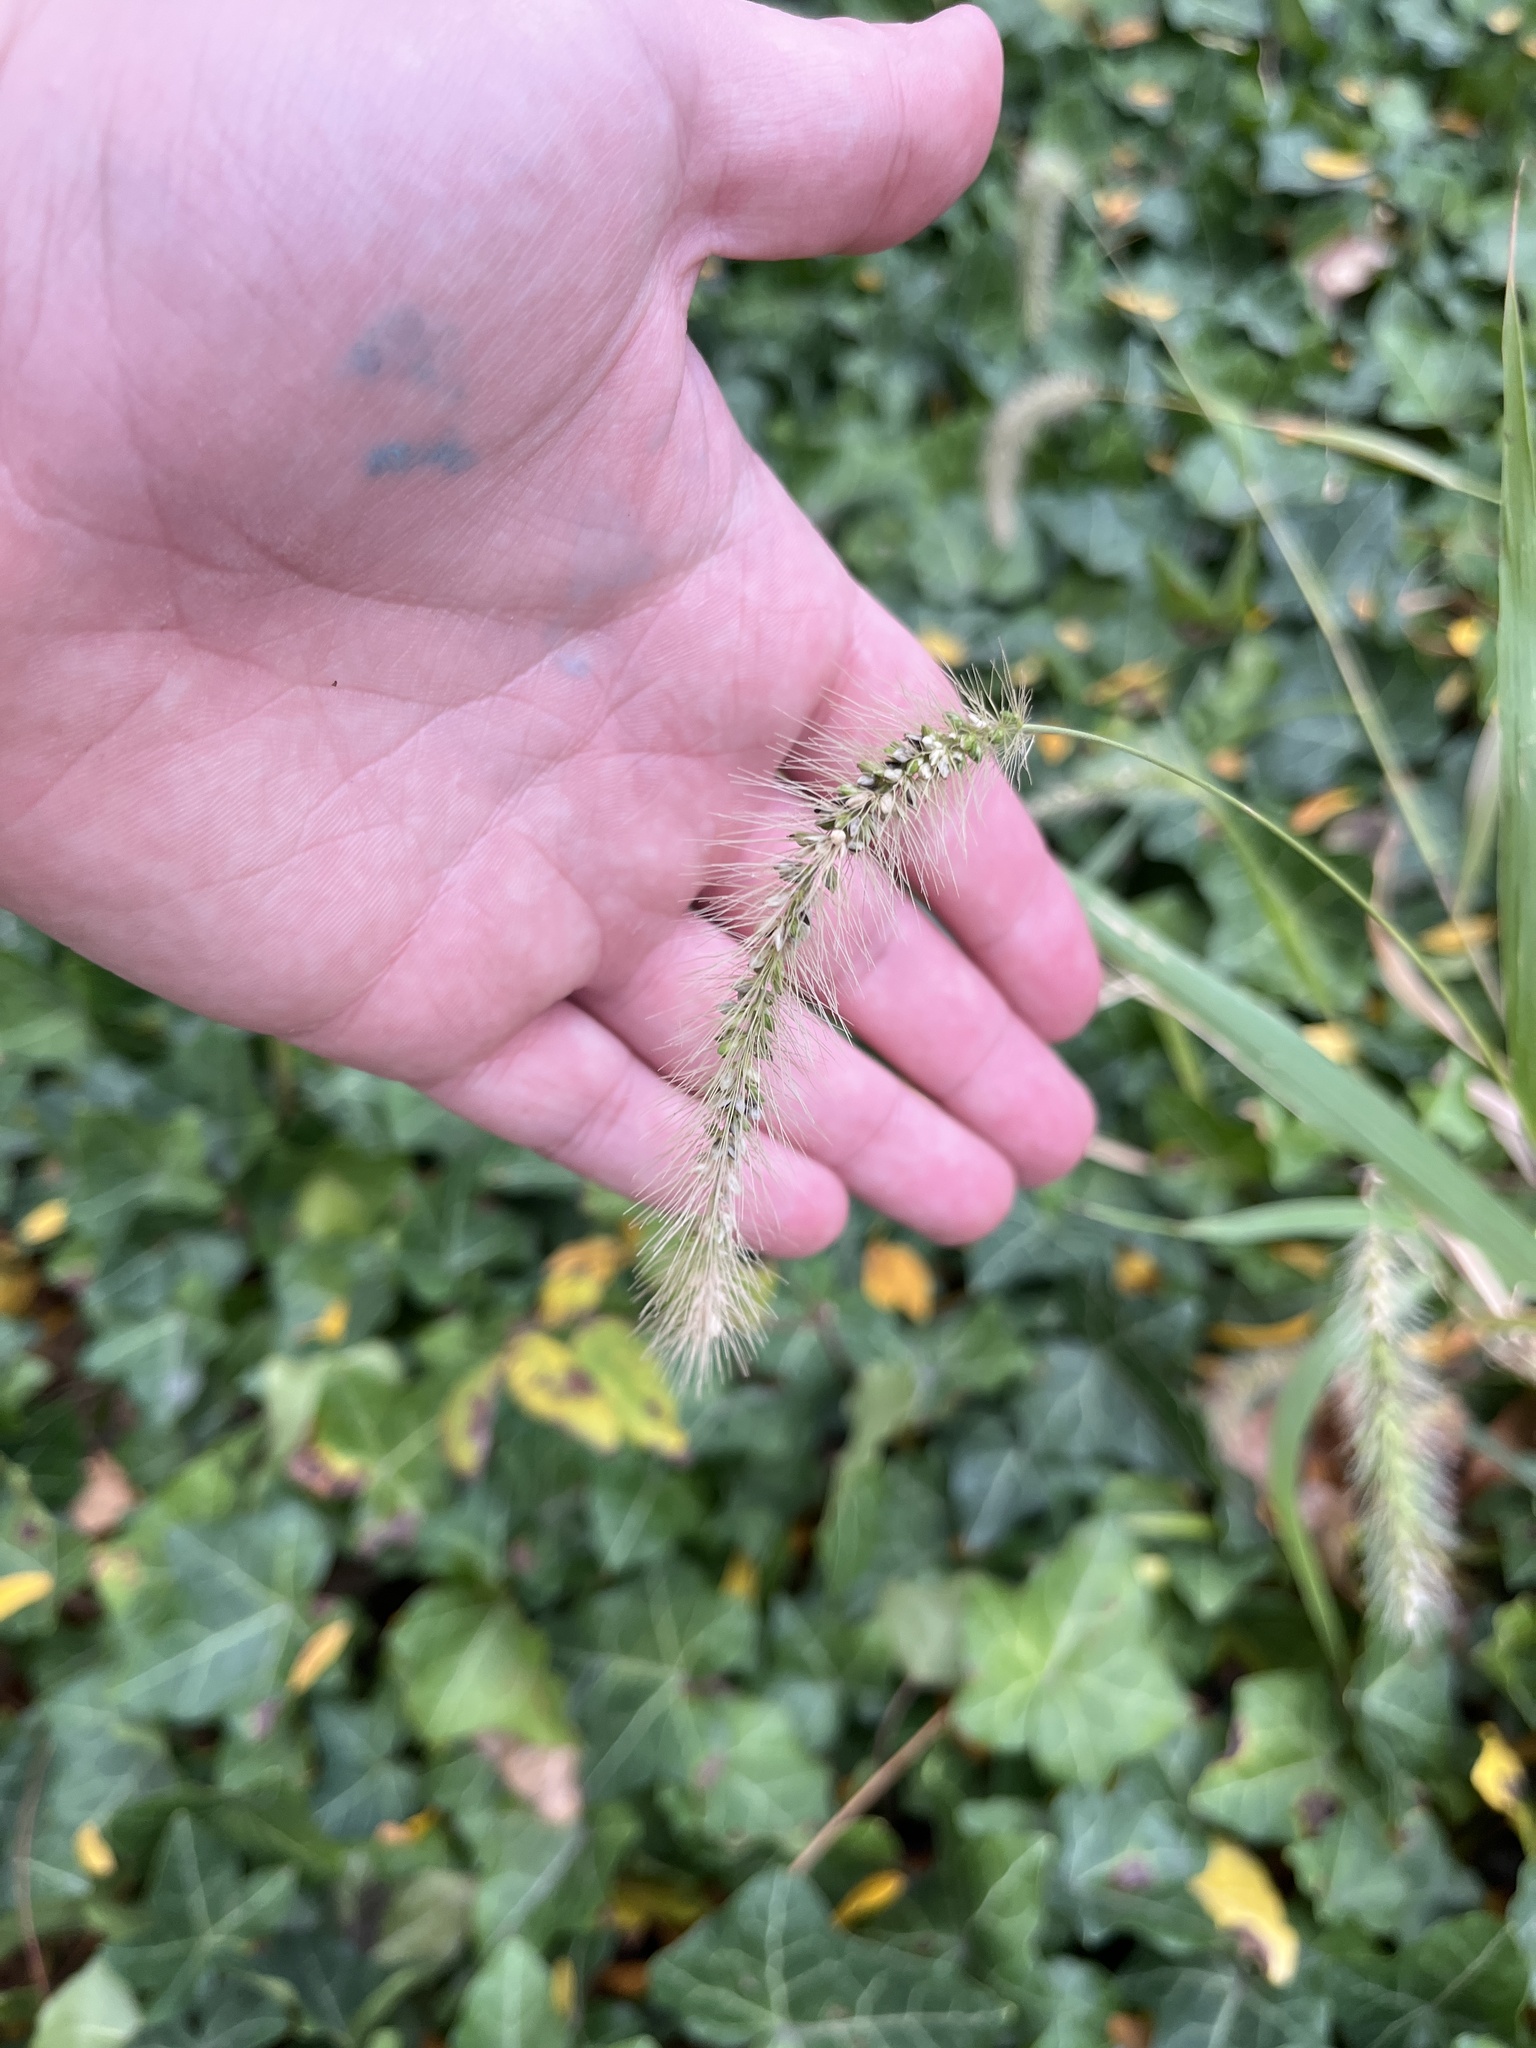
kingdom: Plantae
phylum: Tracheophyta
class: Liliopsida
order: Poales
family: Poaceae
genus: Setaria
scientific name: Setaria faberi
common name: Nodding bristle-grass
